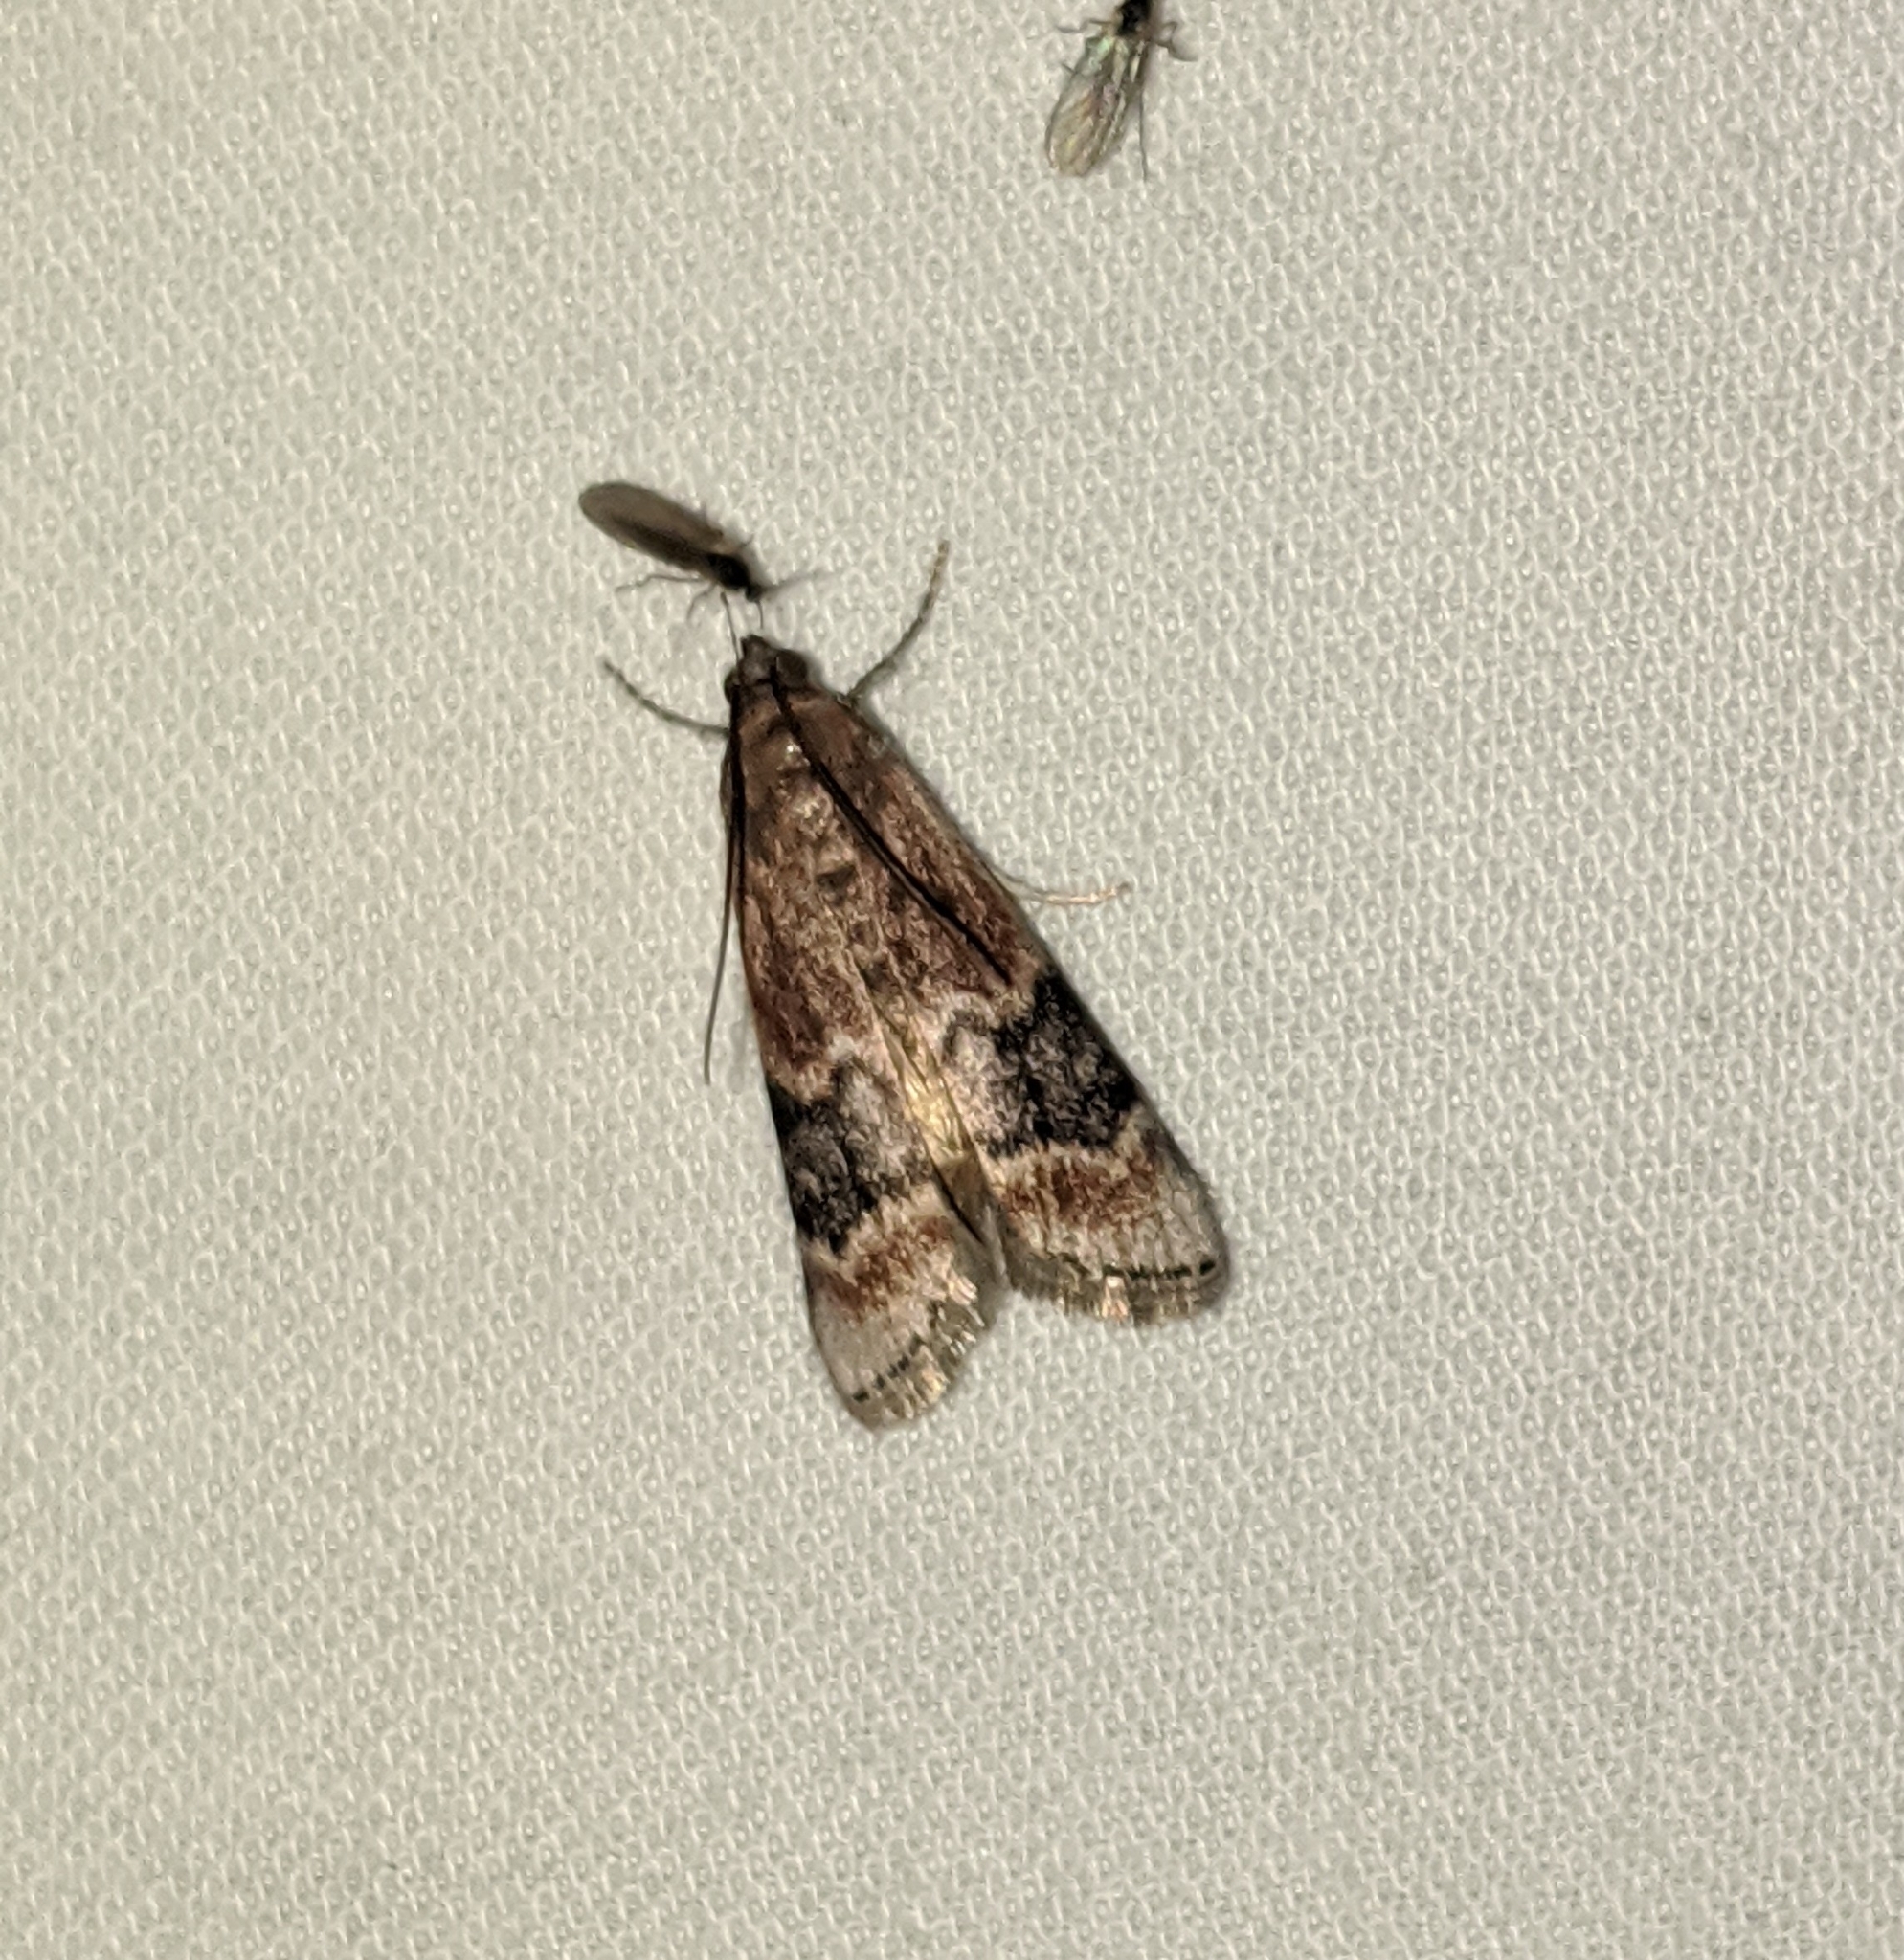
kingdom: Animalia
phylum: Arthropoda
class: Insecta
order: Lepidoptera
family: Pyralidae
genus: Euzophera
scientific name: Euzophera semifuneralis
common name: American plum borer moth
